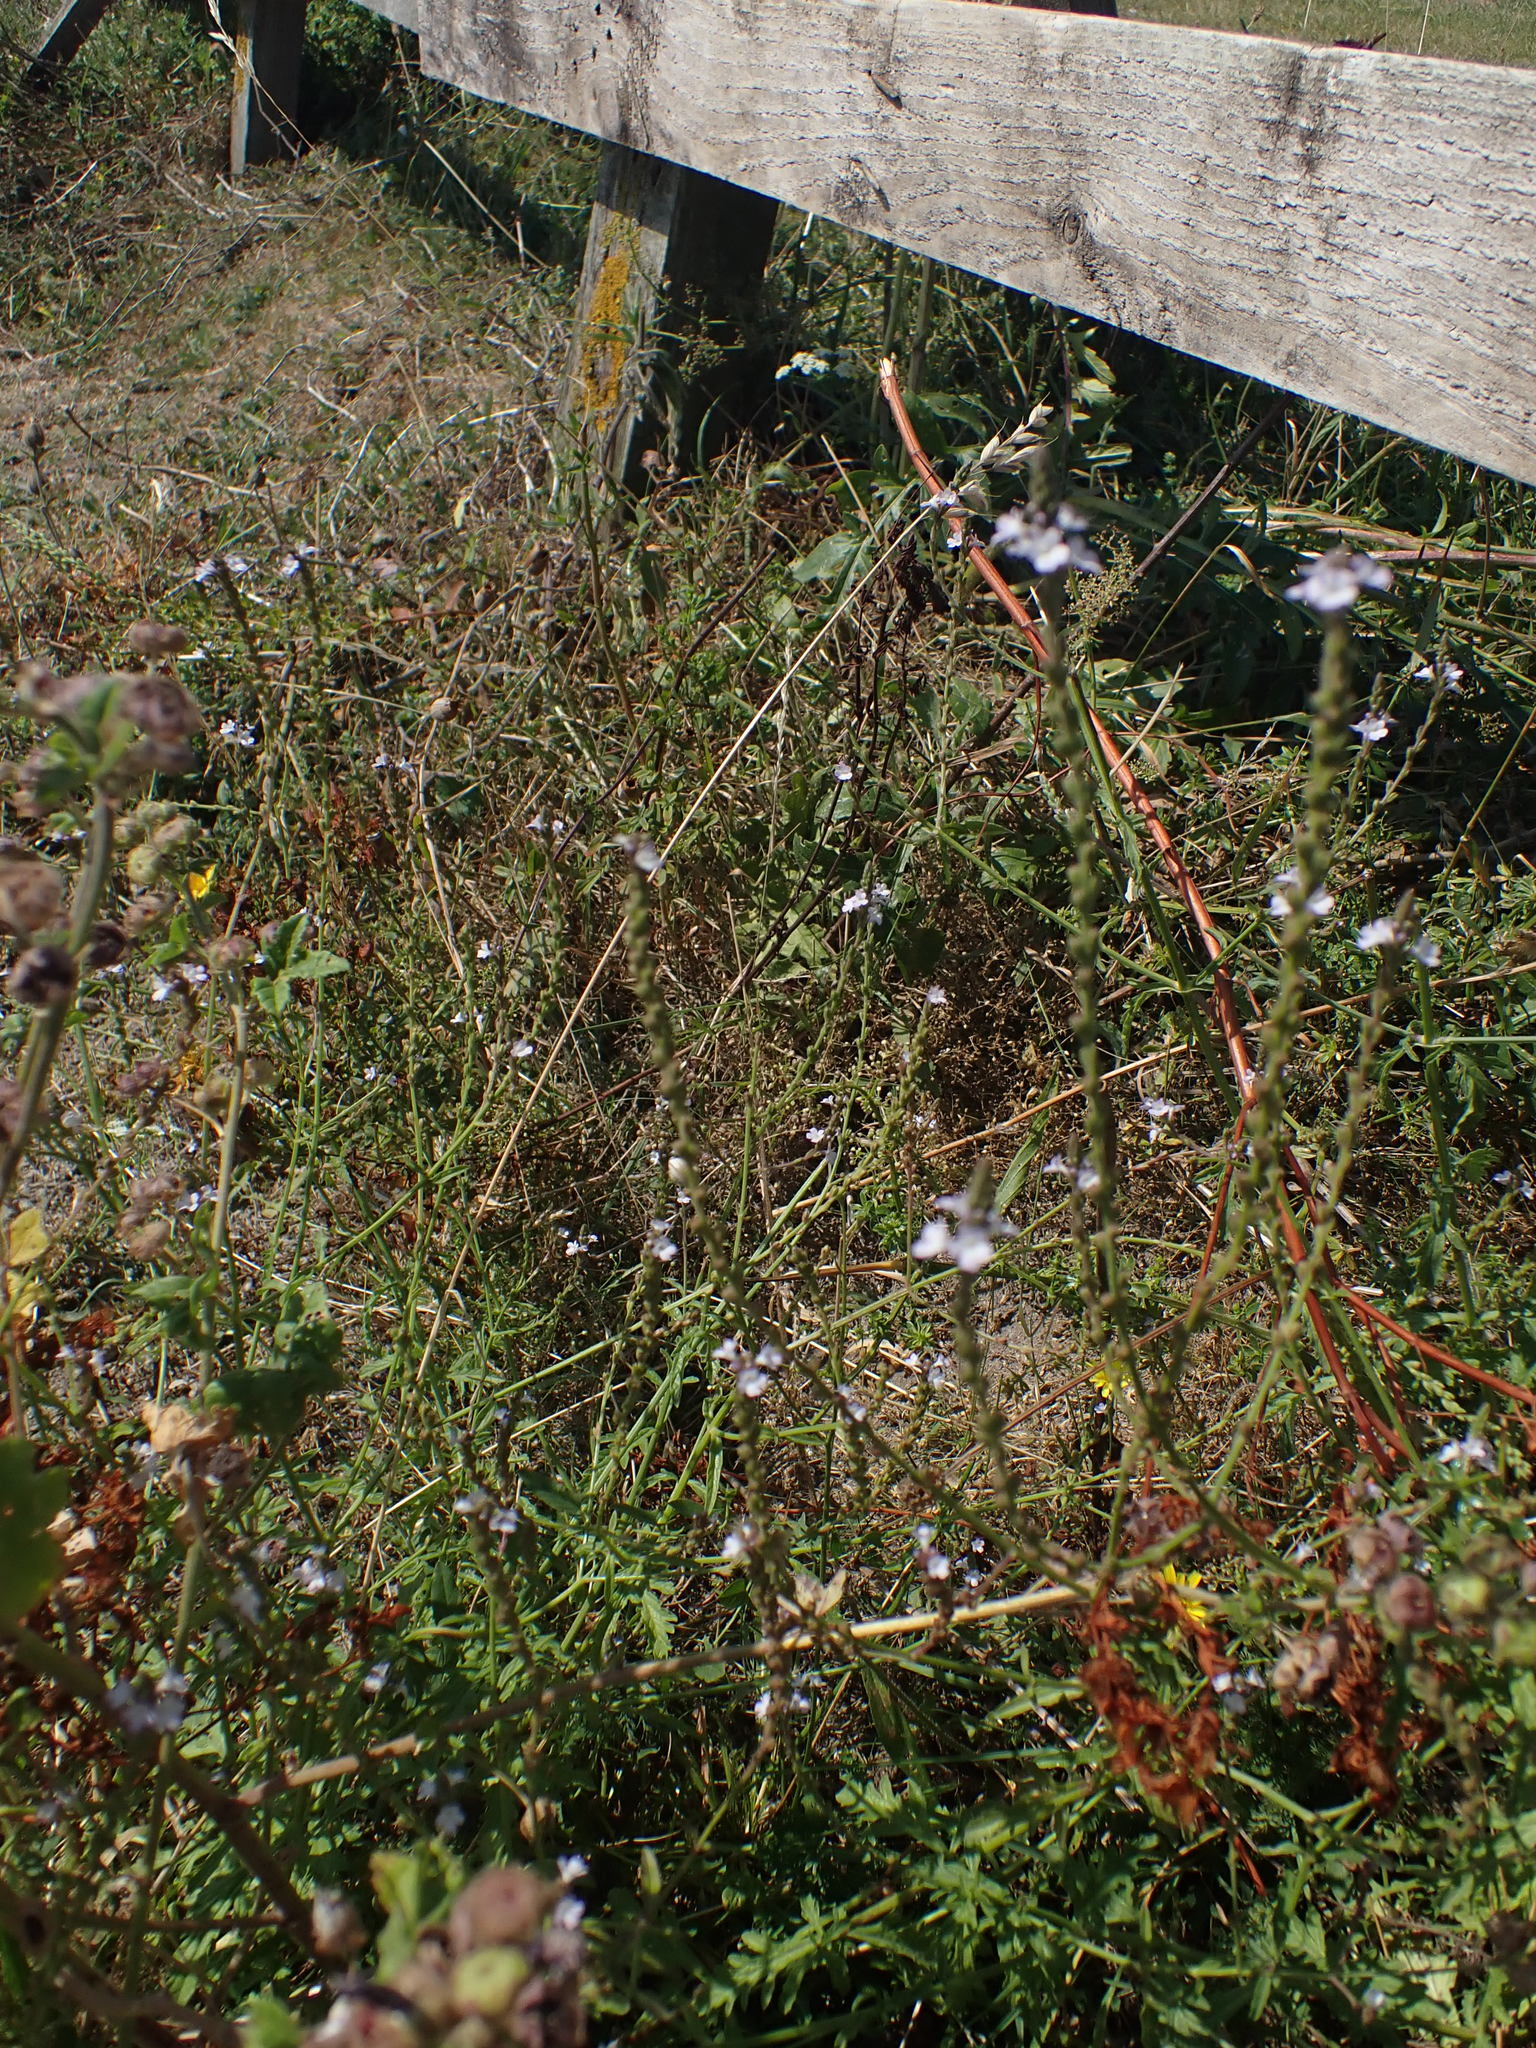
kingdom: Plantae
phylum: Tracheophyta
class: Magnoliopsida
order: Lamiales
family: Verbenaceae
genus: Verbena
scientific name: Verbena officinalis
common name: Vervain
